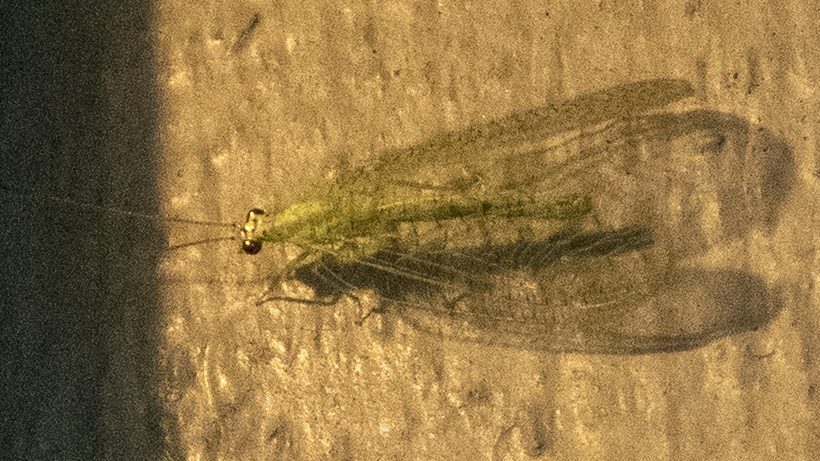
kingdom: Animalia
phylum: Arthropoda
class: Insecta
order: Neuroptera
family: Chrysopidae
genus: Chrysopa
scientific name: Chrysopa oculata
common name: Golden-eyed lacewing
